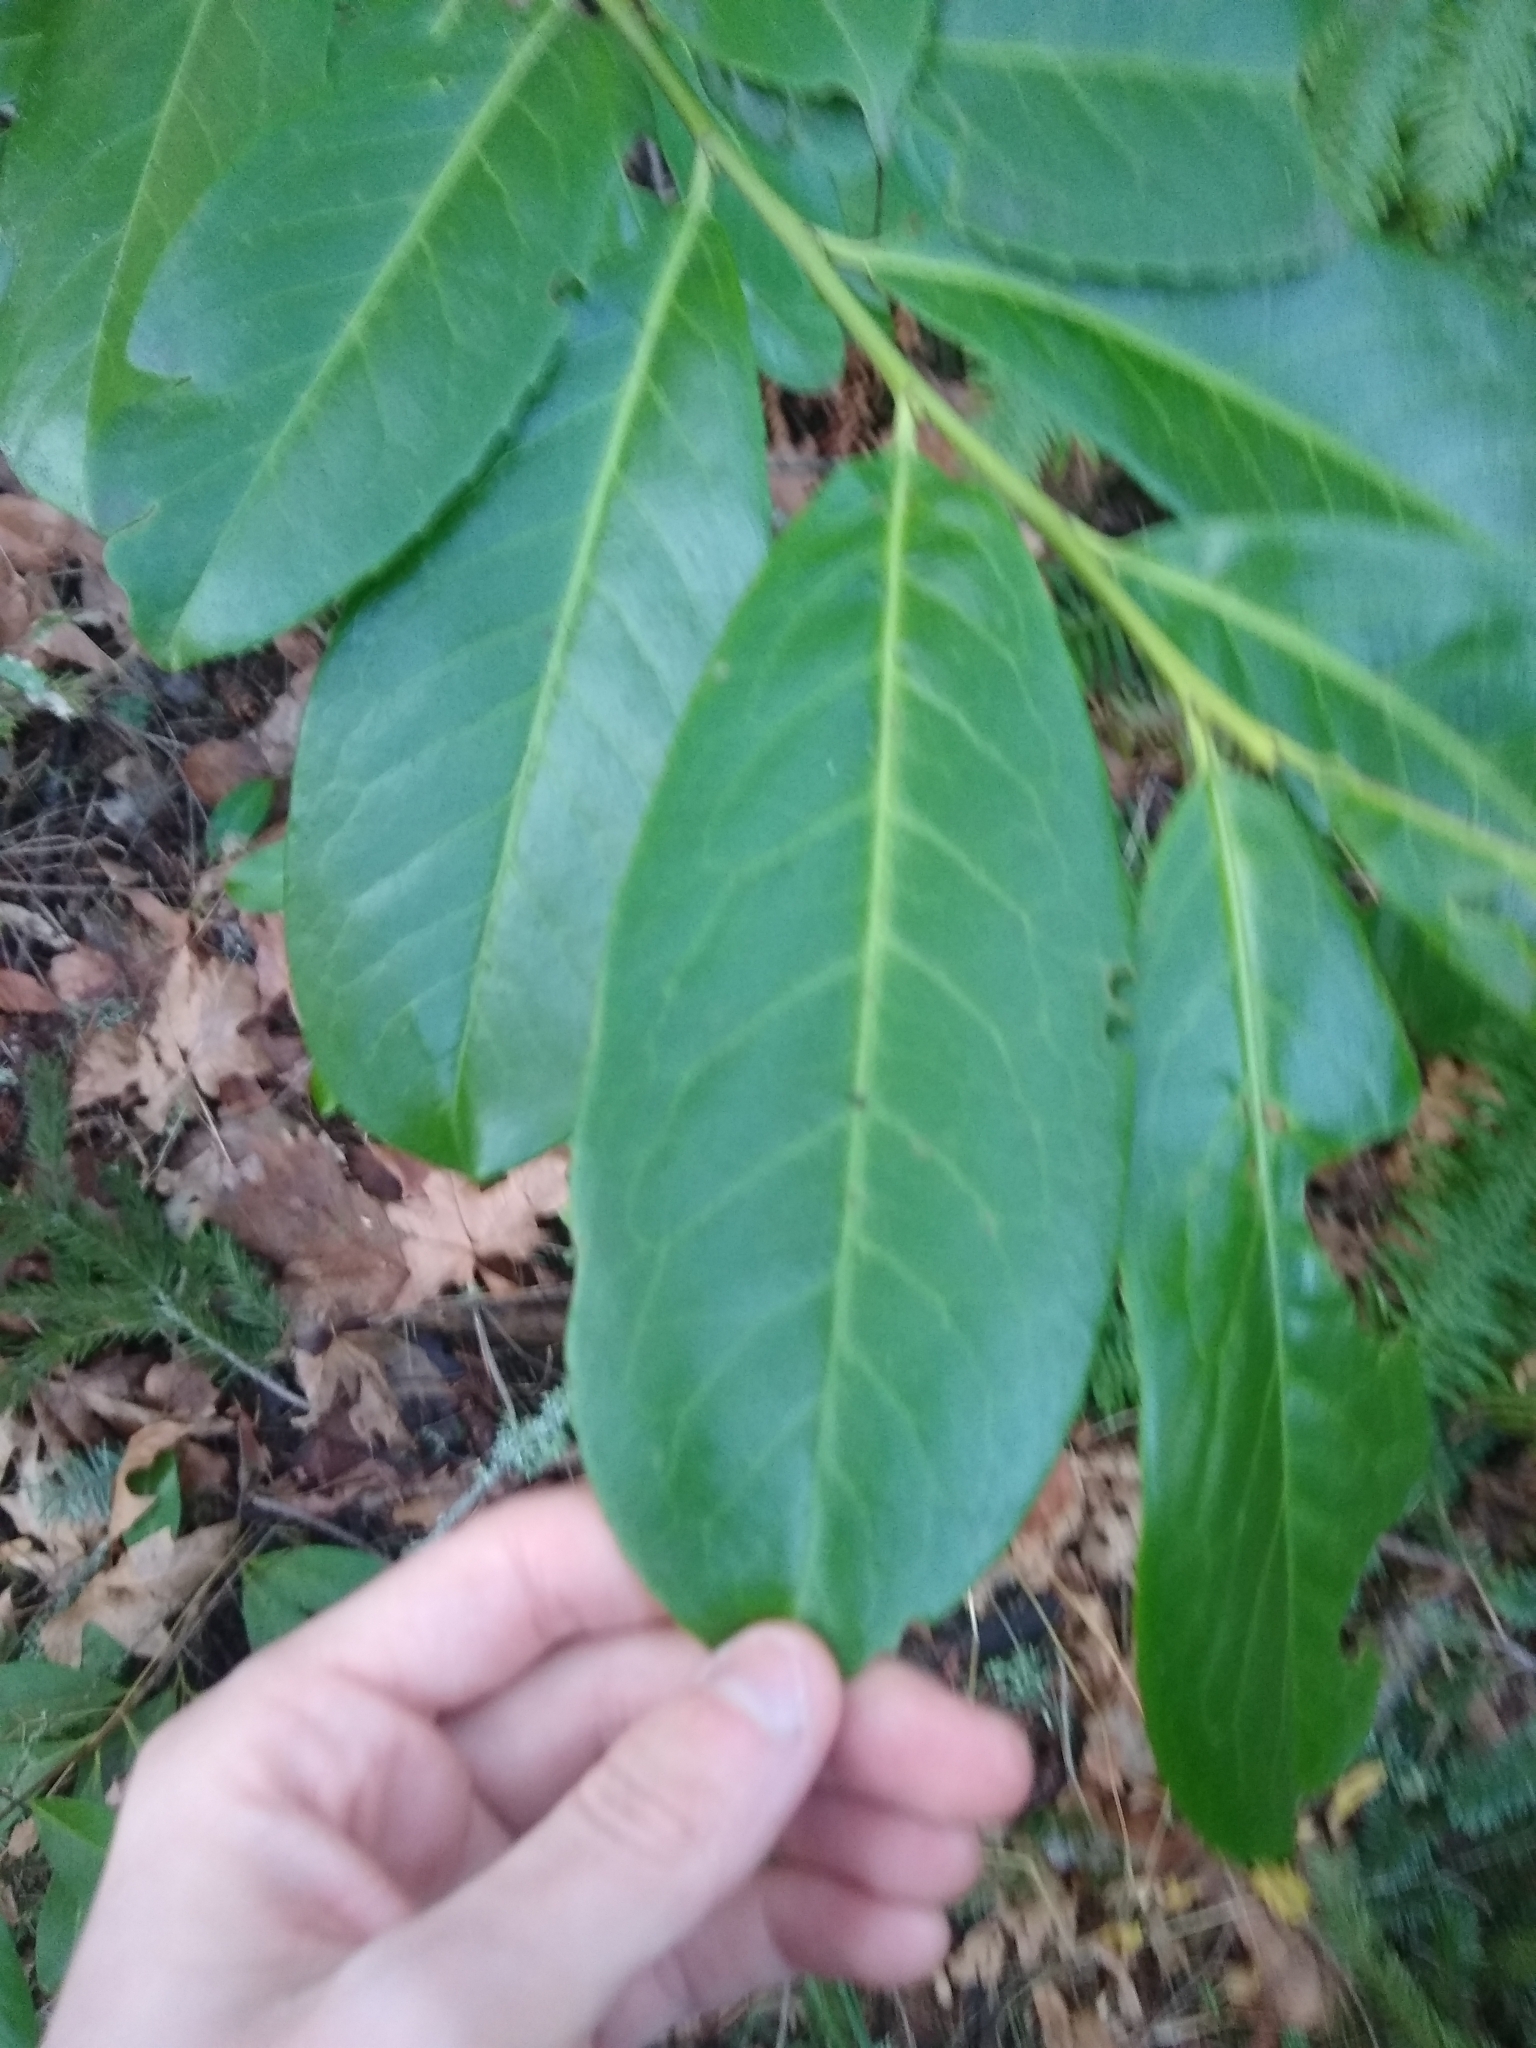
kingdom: Plantae
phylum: Tracheophyta
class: Magnoliopsida
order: Rosales
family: Rosaceae
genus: Prunus
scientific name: Prunus laurocerasus
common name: Cherry laurel
